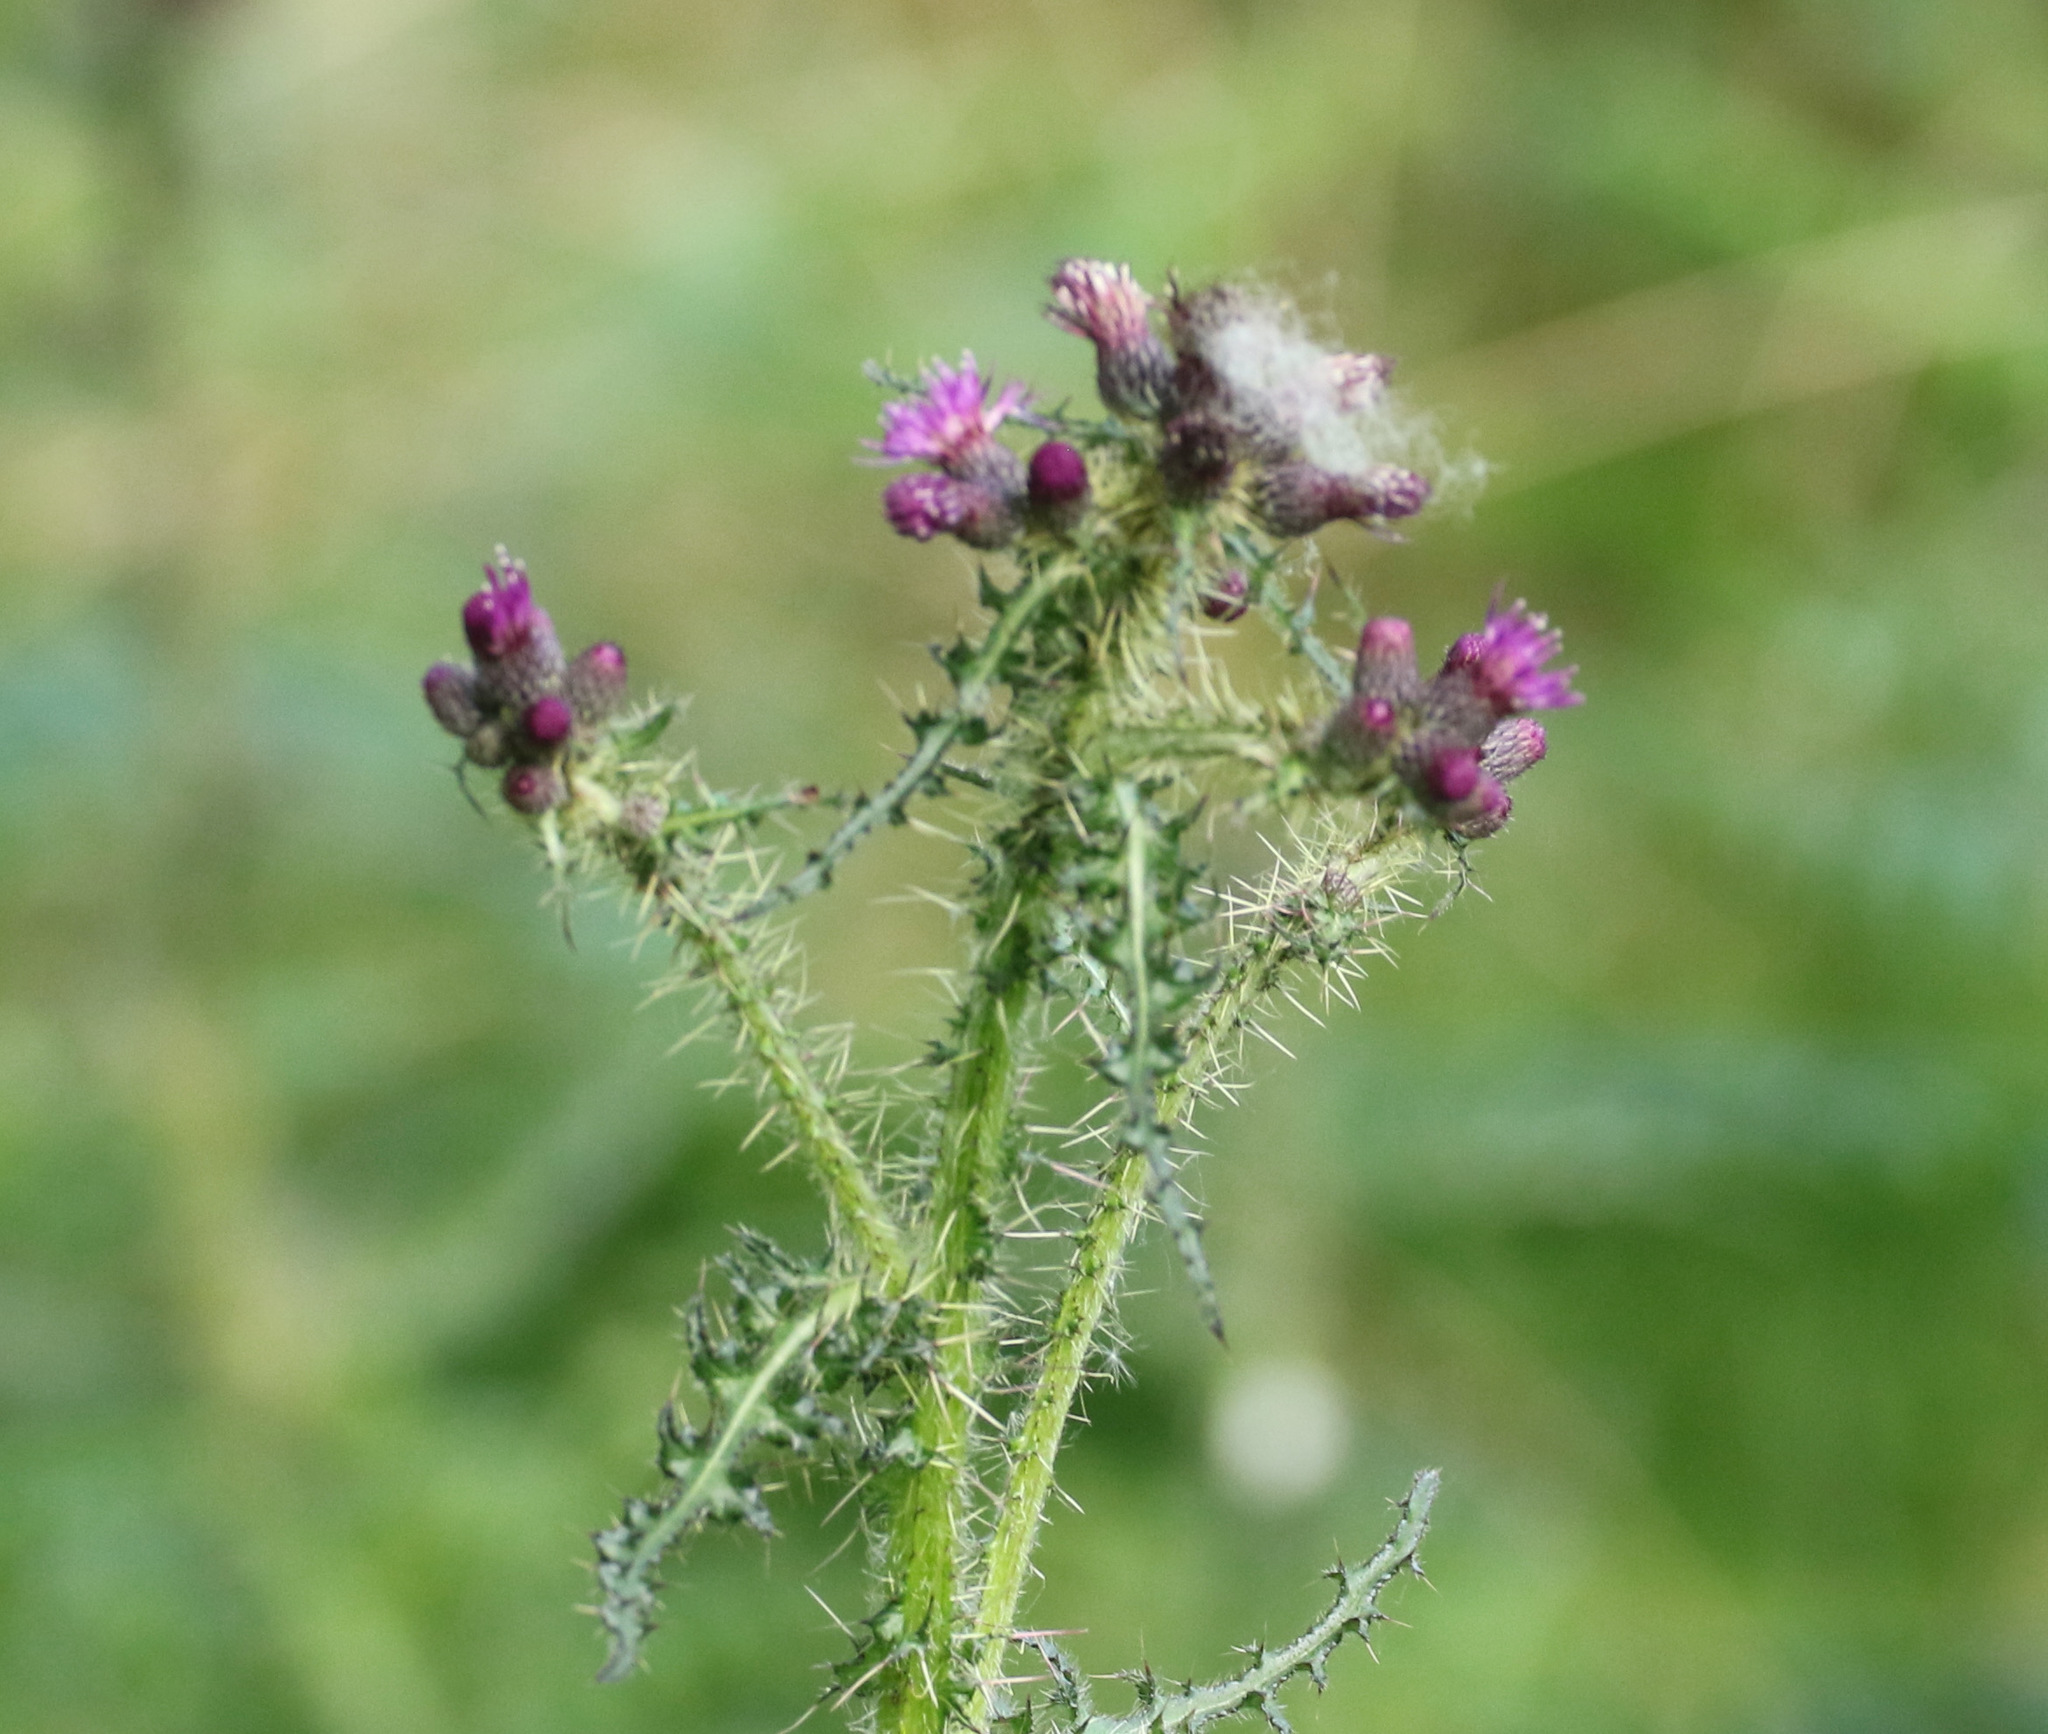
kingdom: Plantae
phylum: Tracheophyta
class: Magnoliopsida
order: Asterales
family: Asteraceae
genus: Cirsium
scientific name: Cirsium palustre
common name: Marsh thistle
